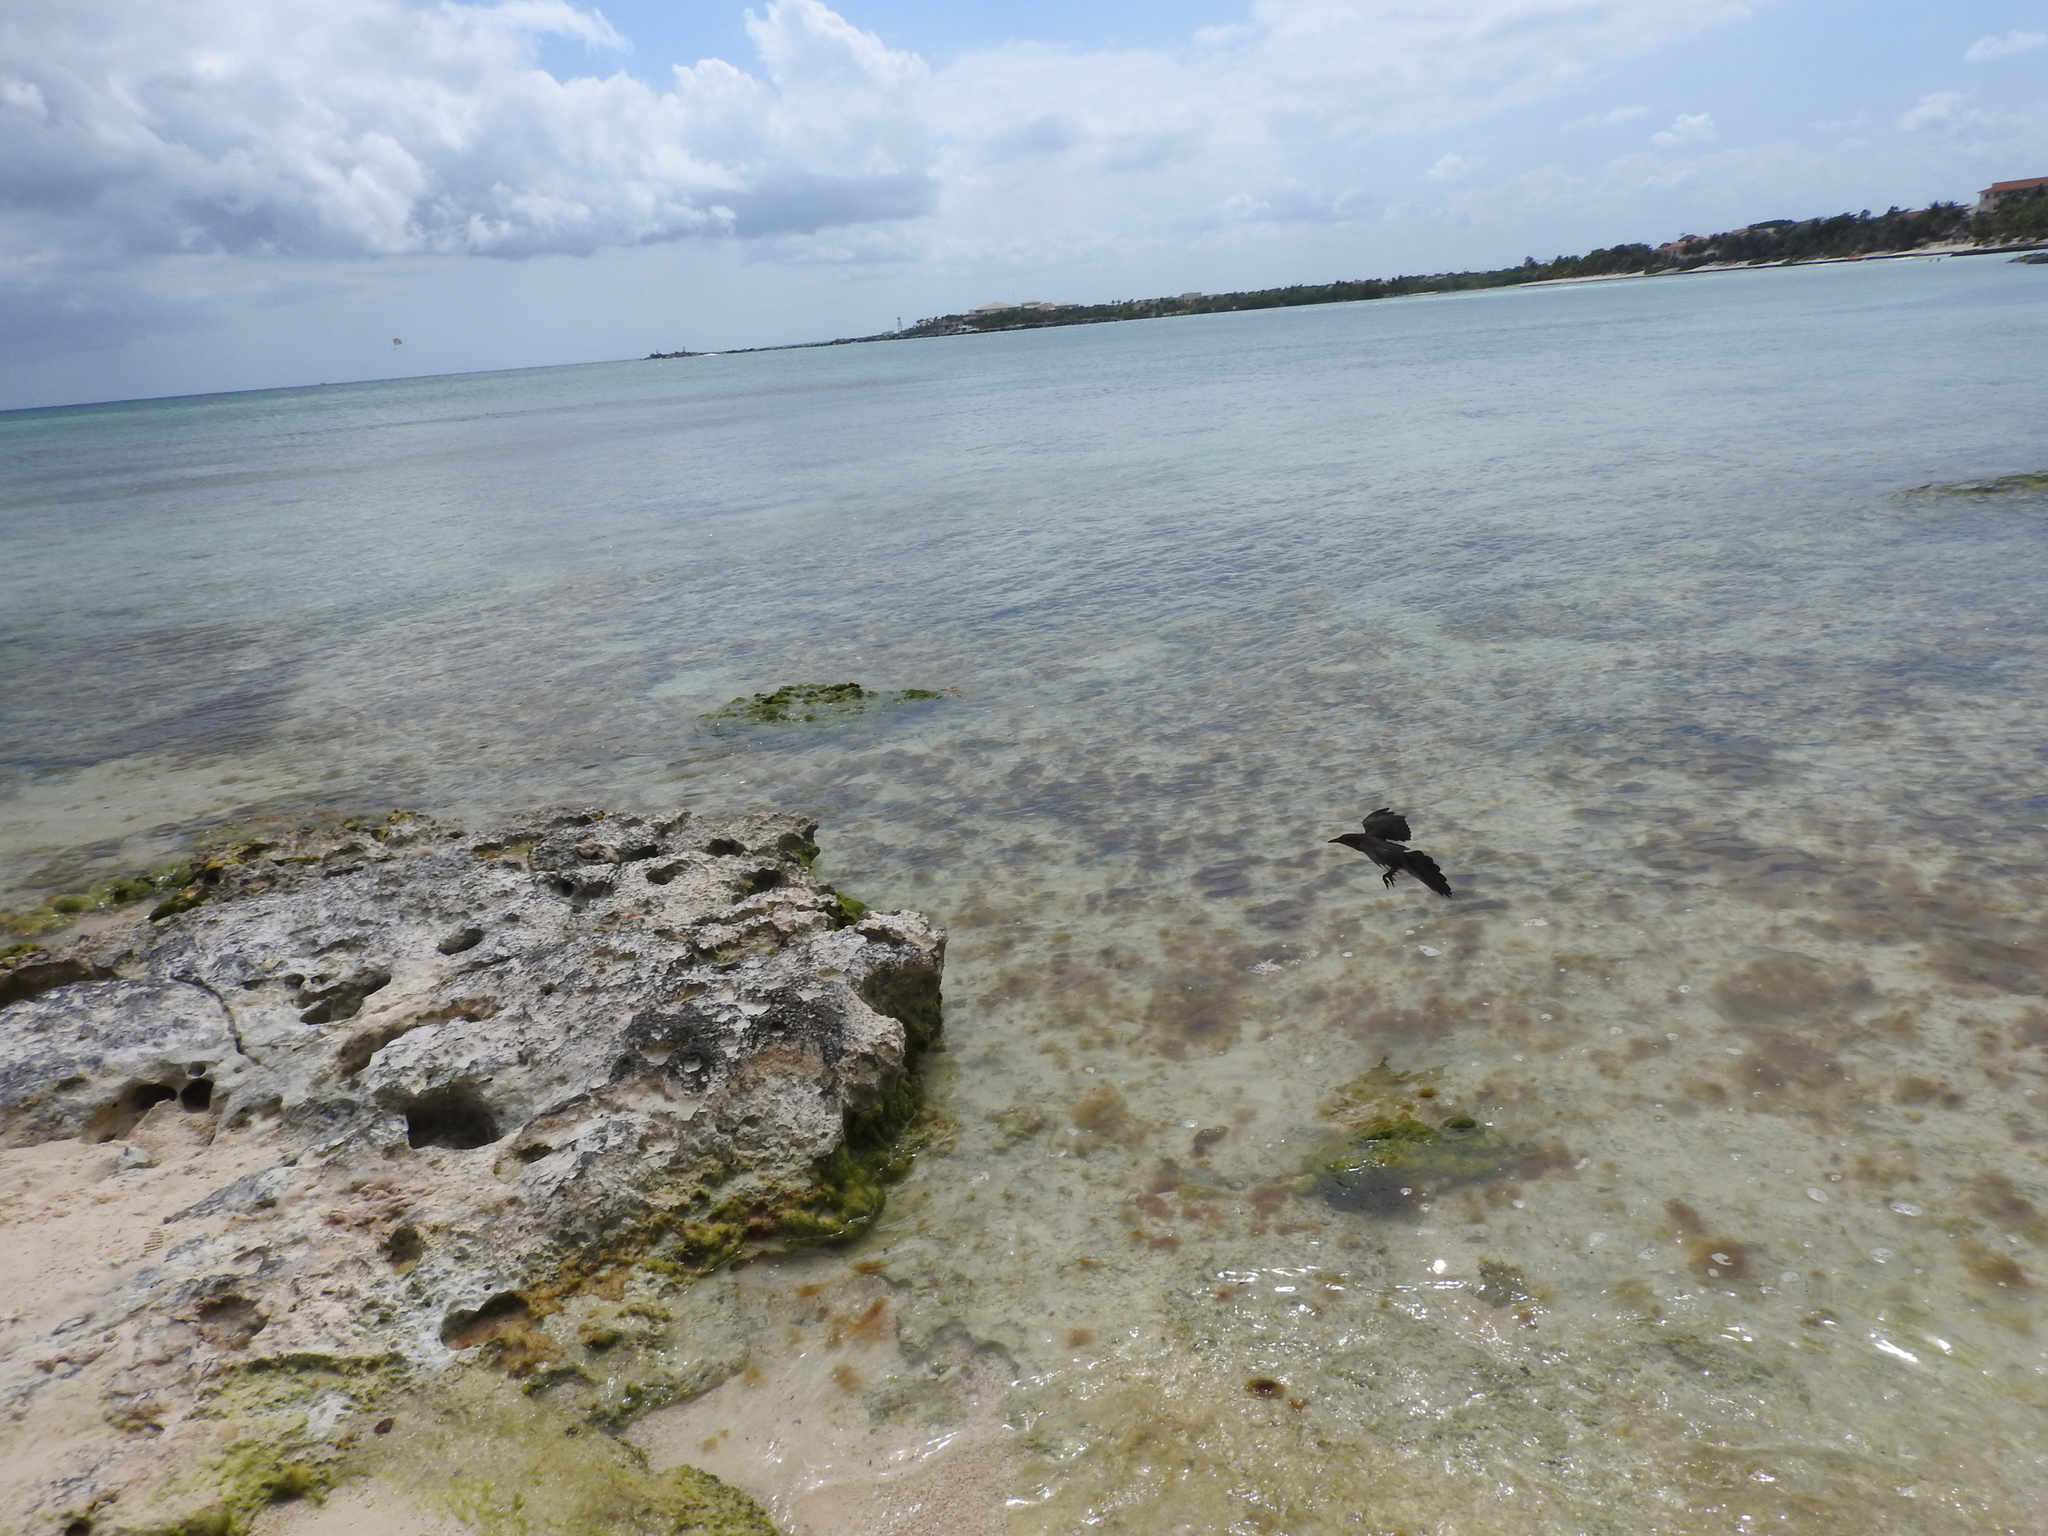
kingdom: Animalia
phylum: Chordata
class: Aves
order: Passeriformes
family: Icteridae
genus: Quiscalus
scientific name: Quiscalus mexicanus
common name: Great-tailed grackle
